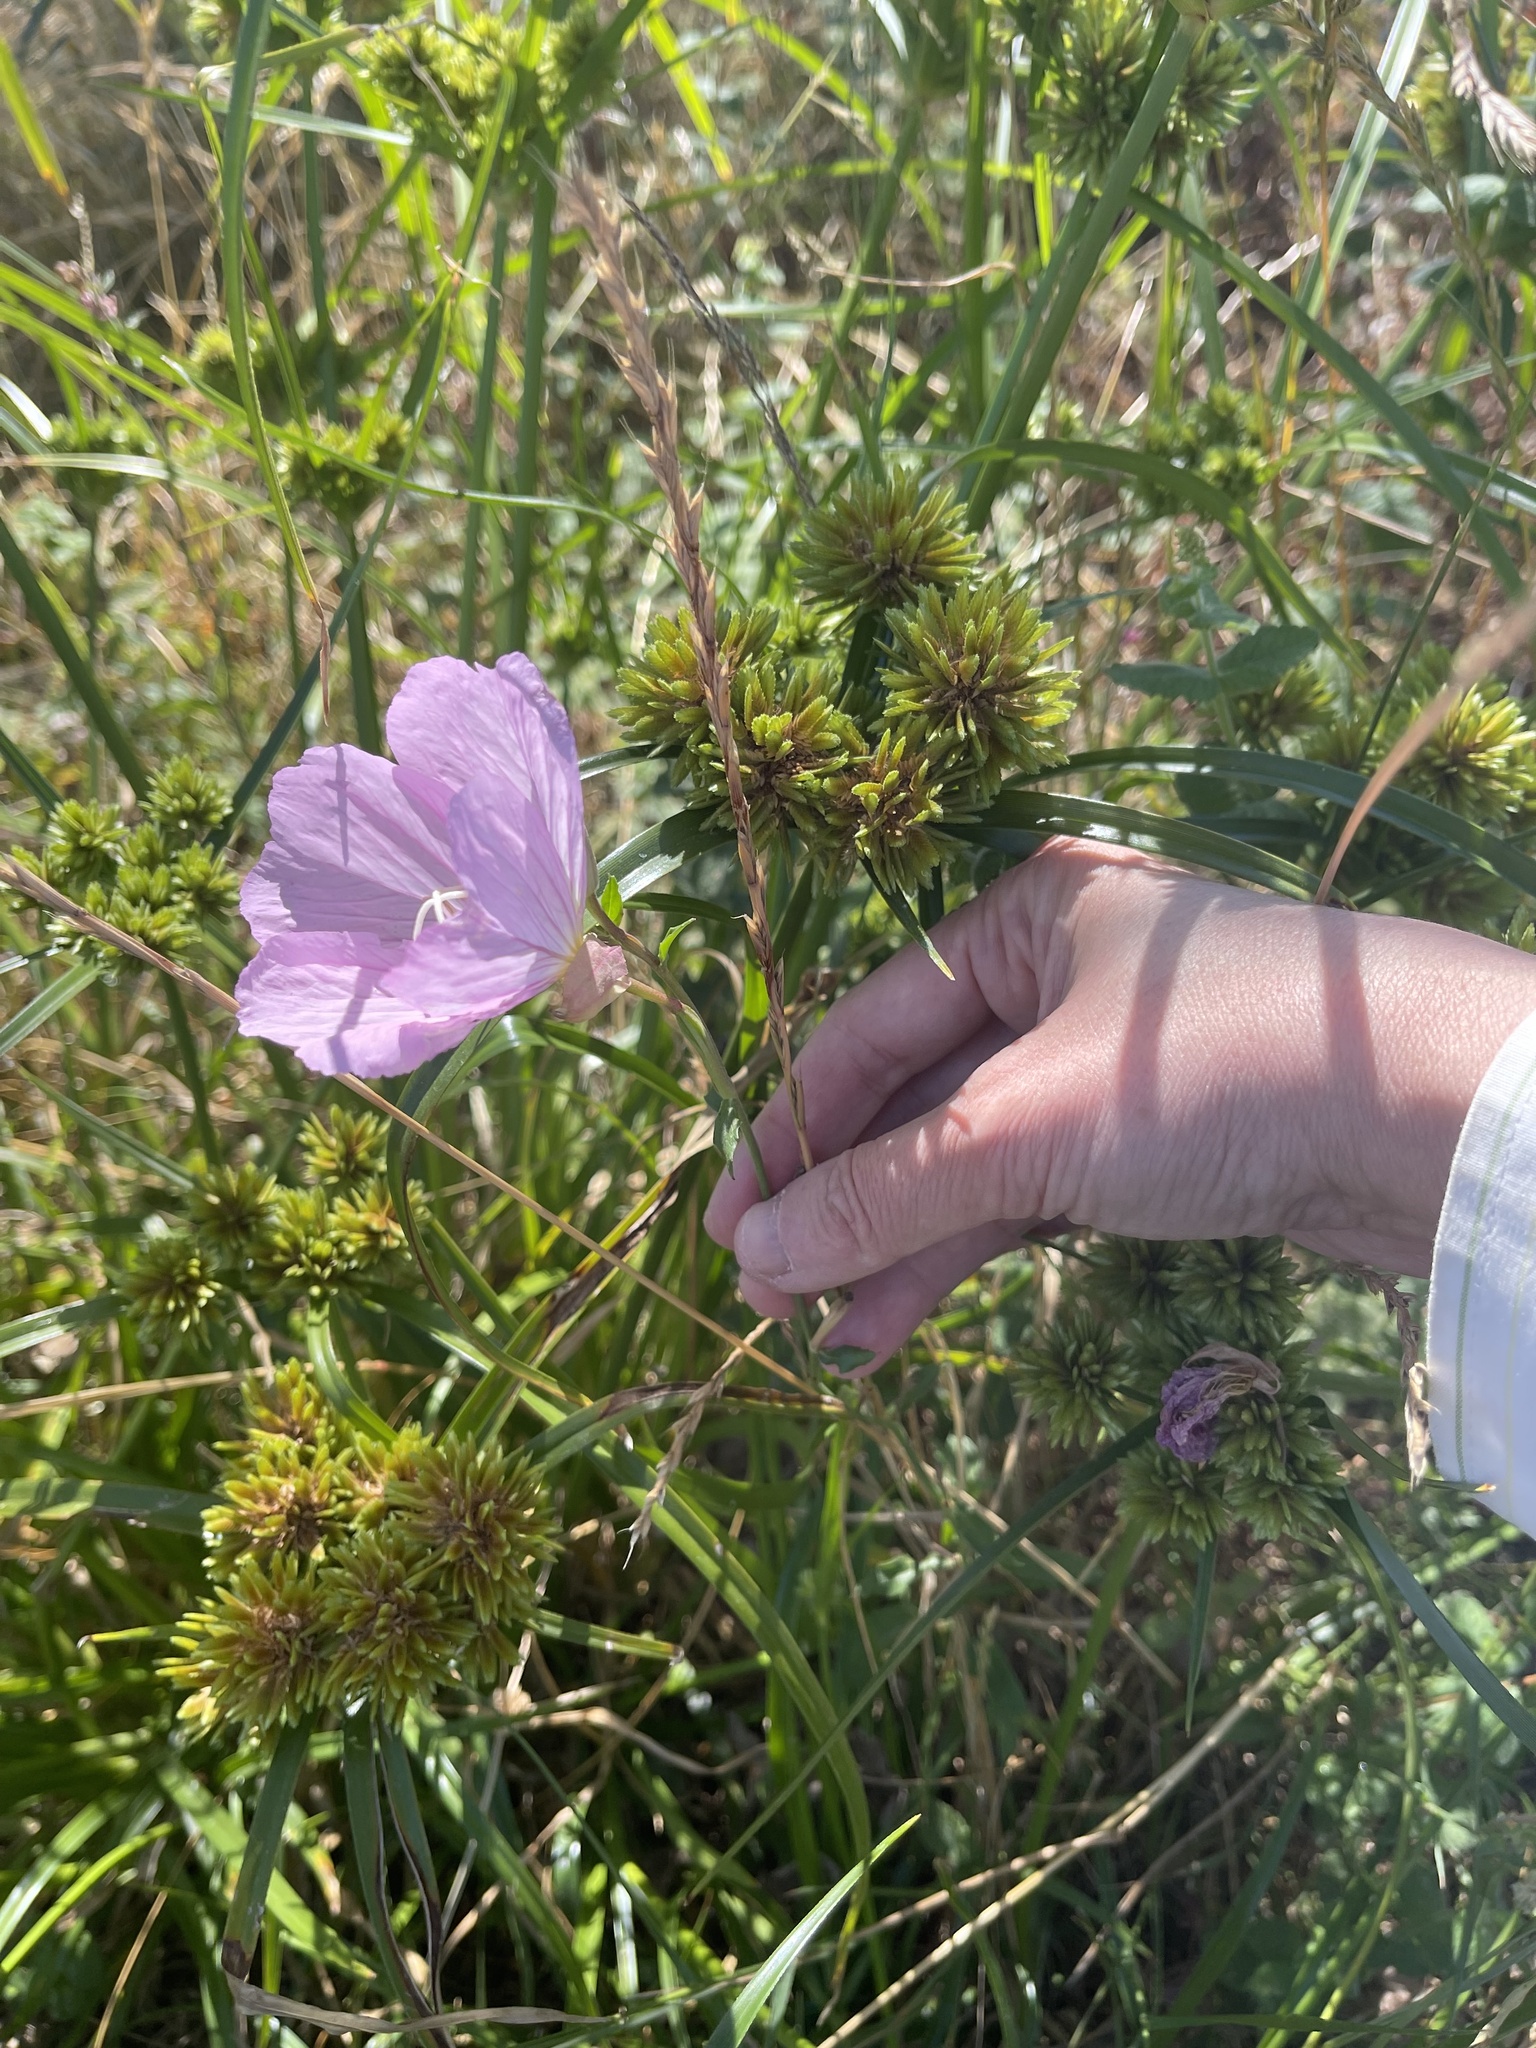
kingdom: Plantae
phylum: Tracheophyta
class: Magnoliopsida
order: Myrtales
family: Onagraceae
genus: Oenothera
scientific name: Oenothera speciosa
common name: White evening-primrose
